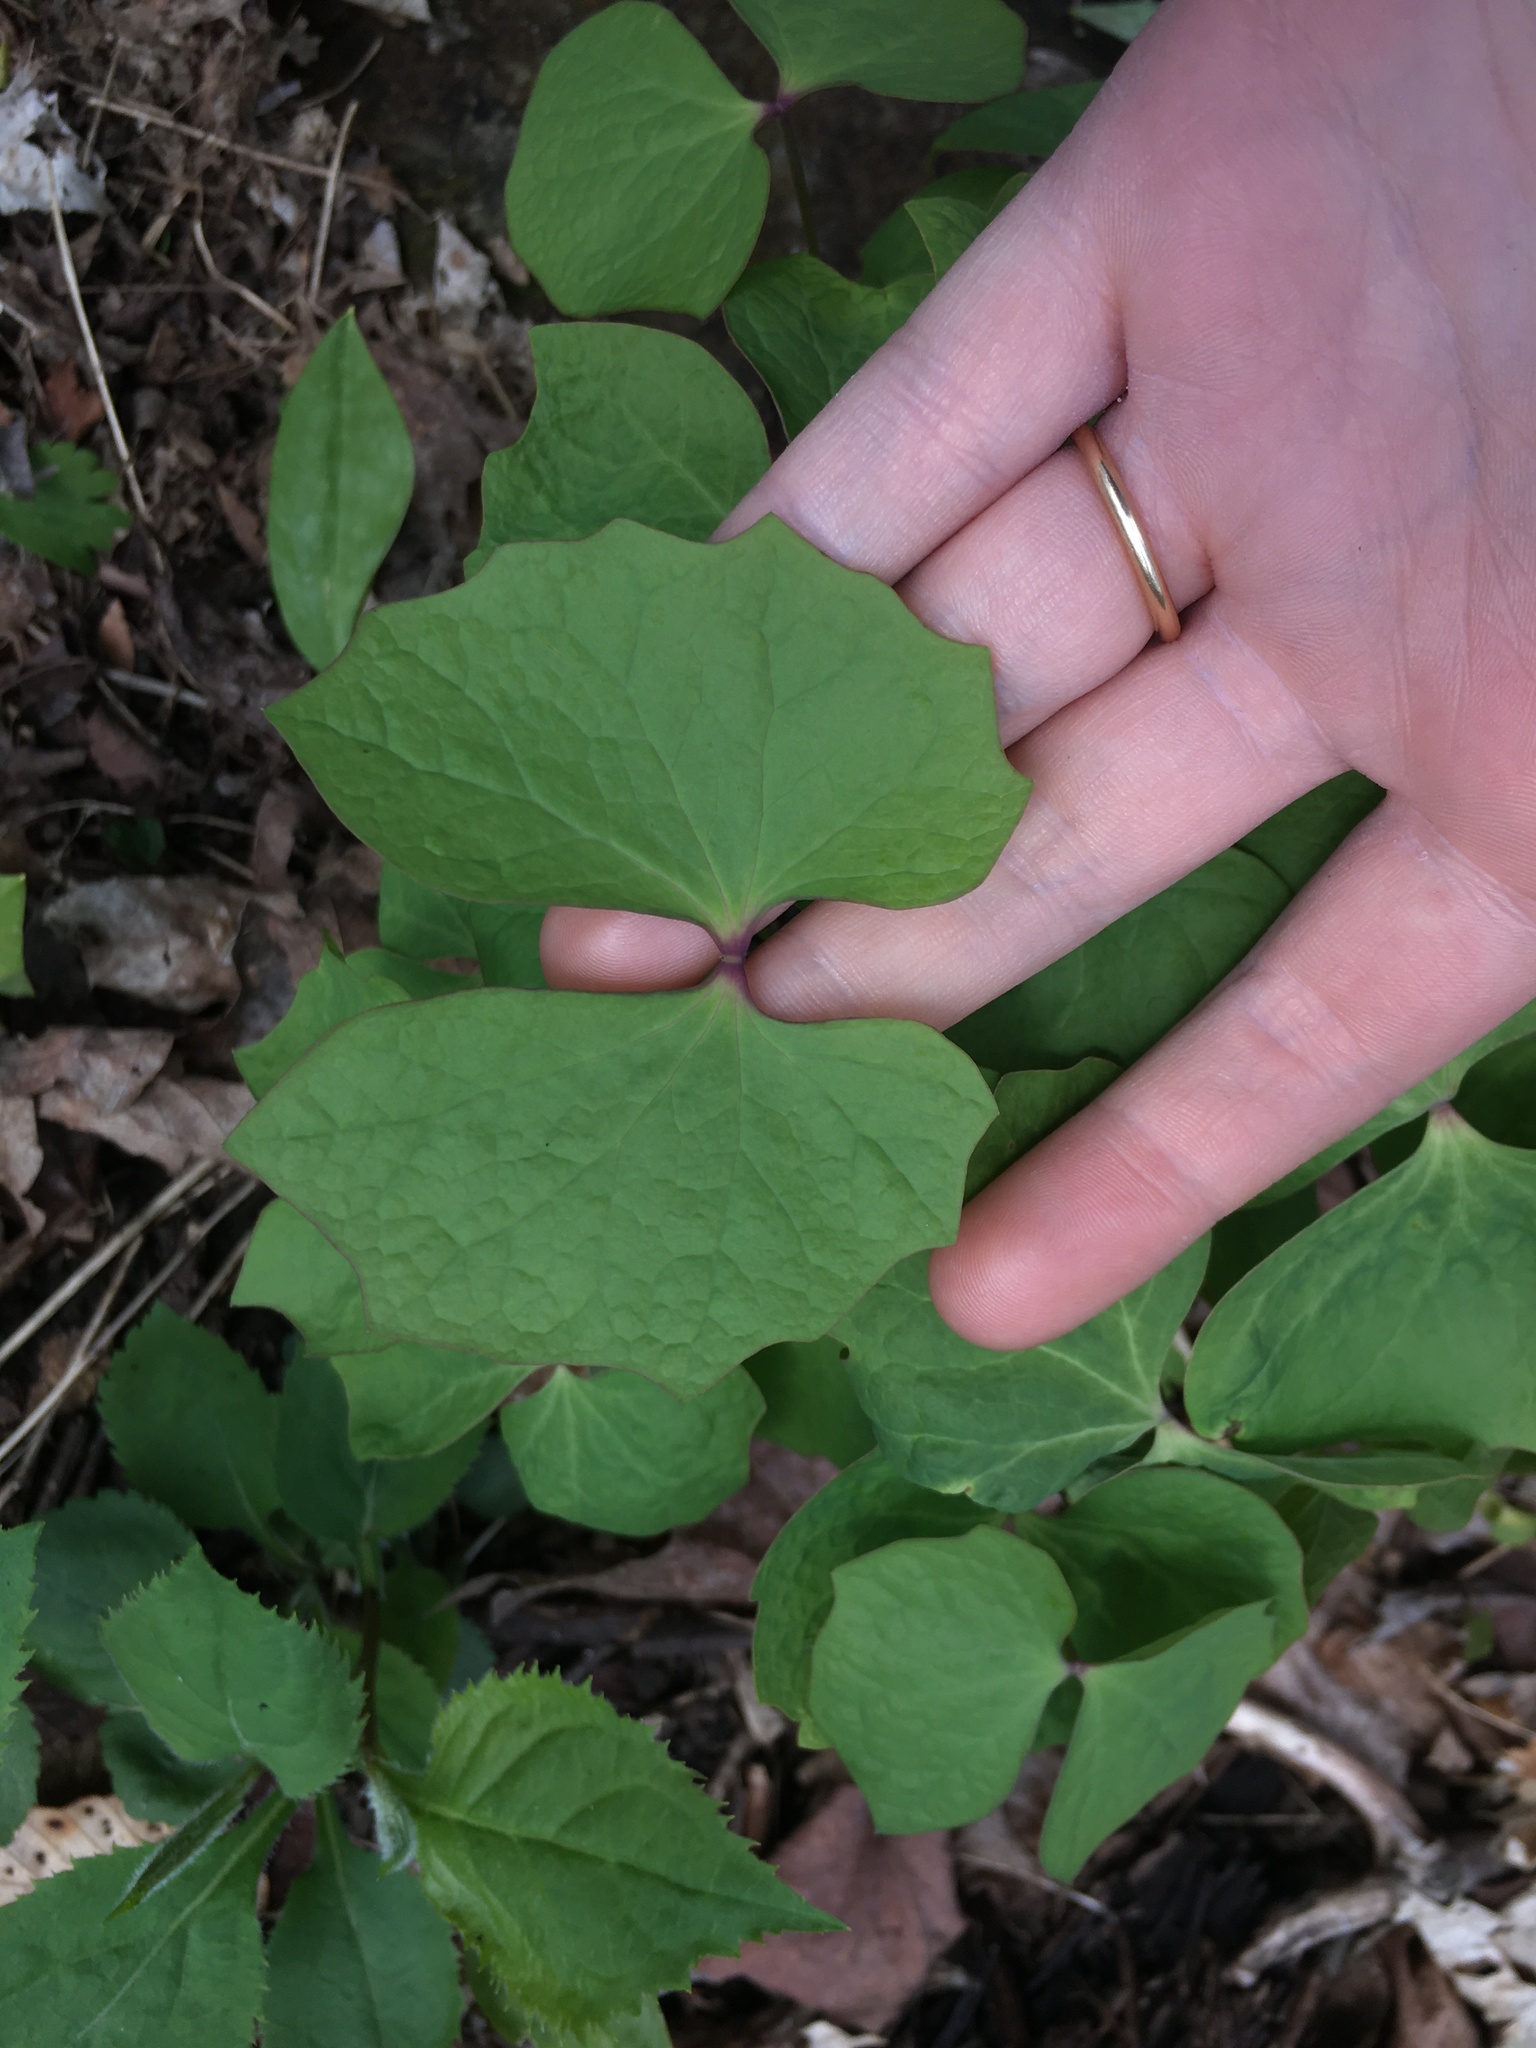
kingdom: Plantae
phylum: Tracheophyta
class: Magnoliopsida
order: Ranunculales
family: Berberidaceae
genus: Jeffersonia
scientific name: Jeffersonia diphylla
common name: Rheumatism-root
